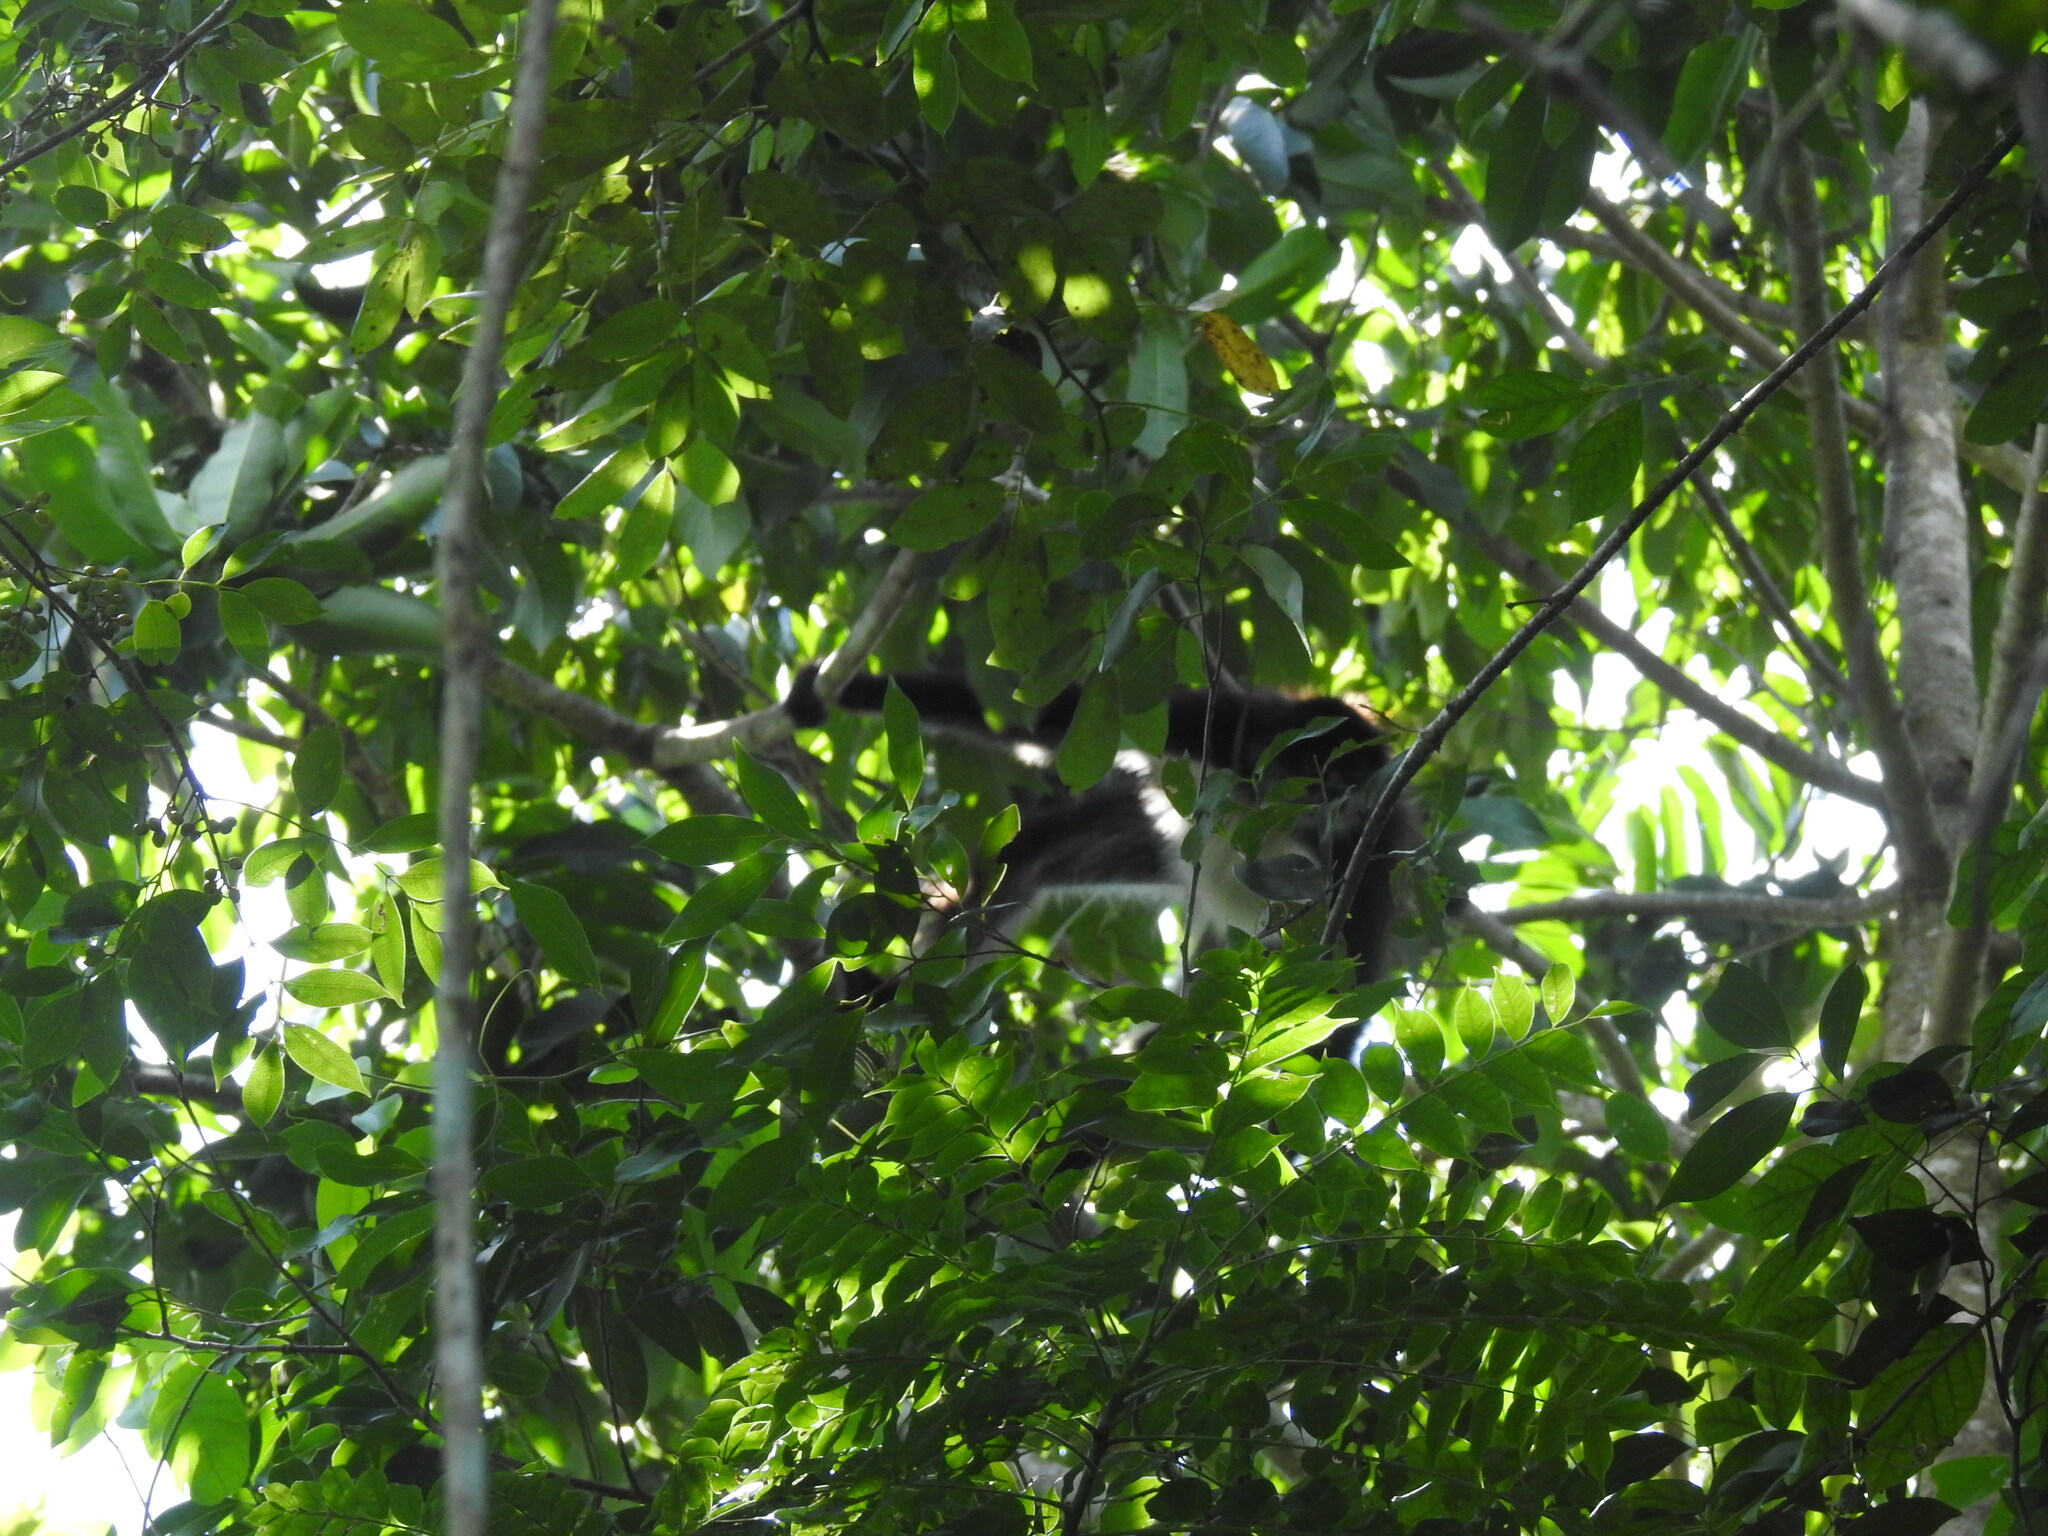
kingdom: Animalia
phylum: Chordata
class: Mammalia
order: Primates
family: Atelidae
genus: Ateles
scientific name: Ateles geoffroyi
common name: Black-handed spider monkey
